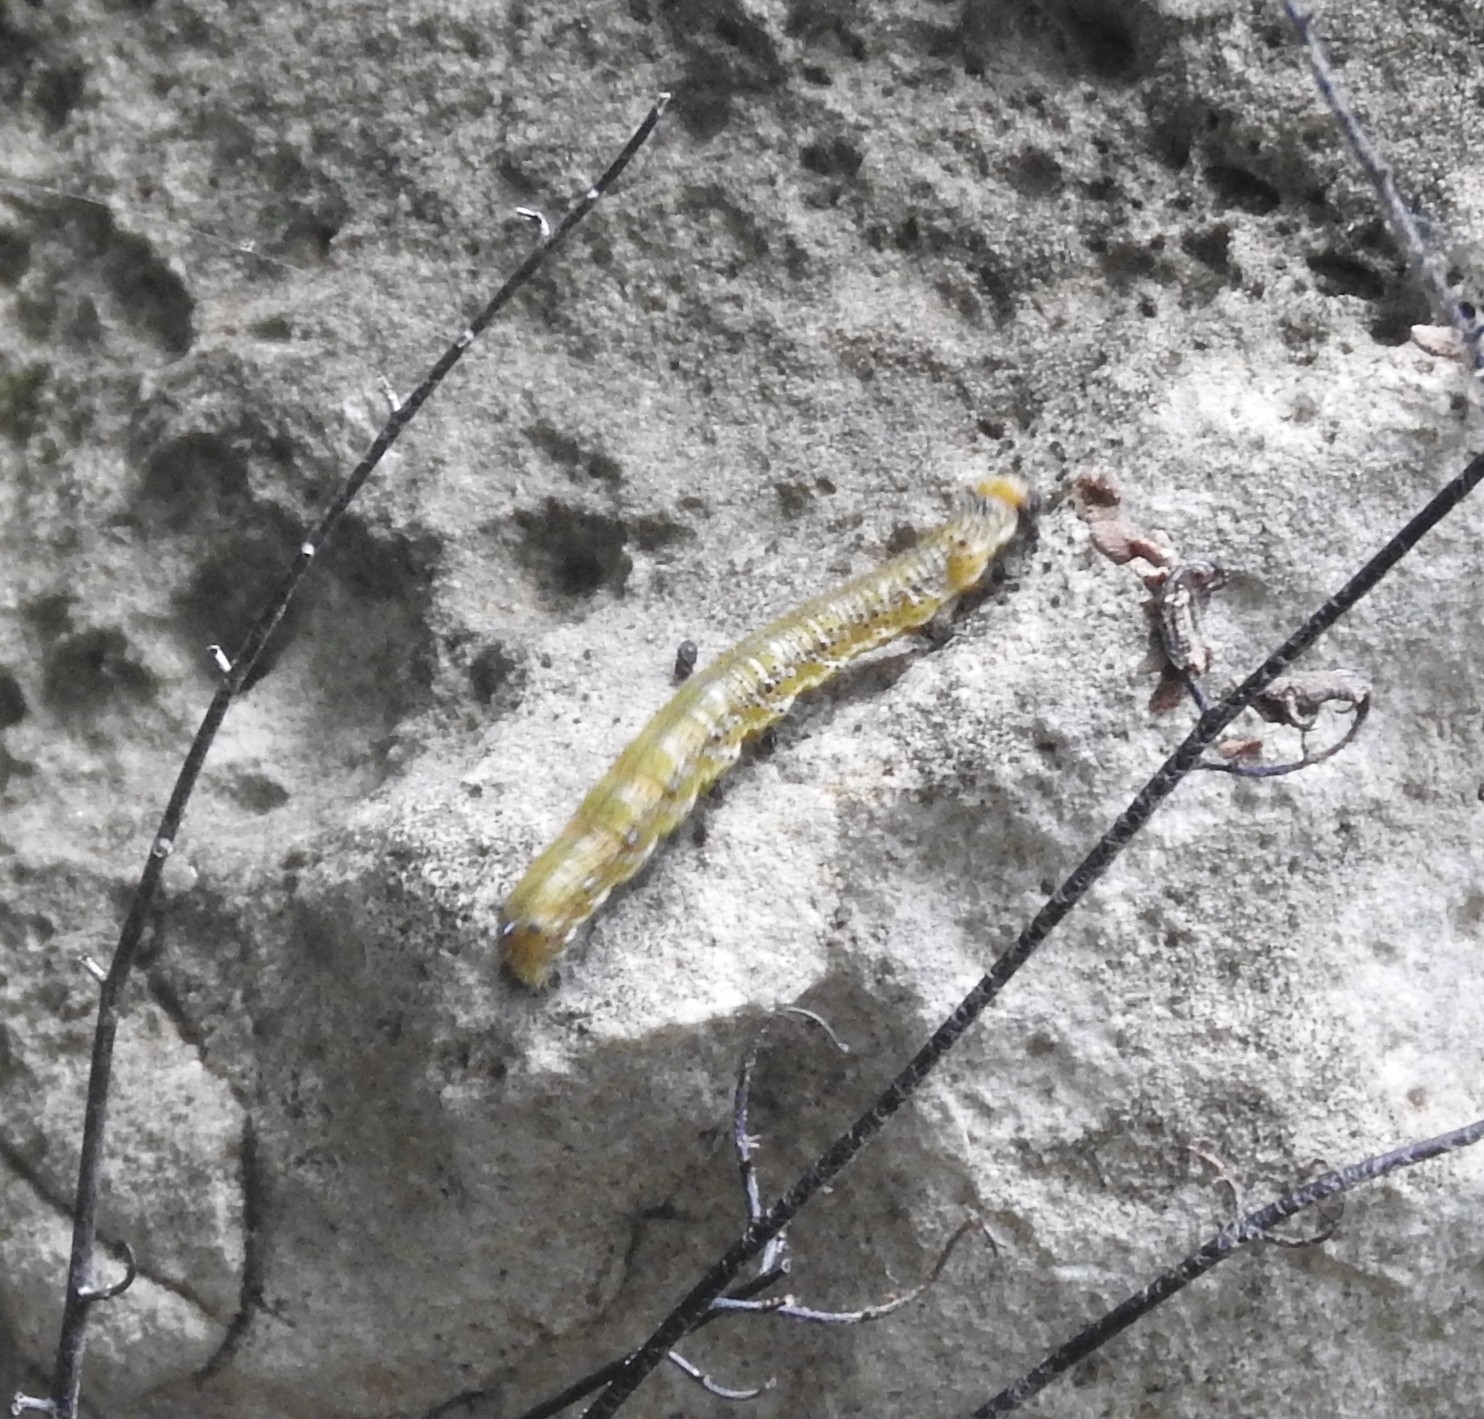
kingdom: Animalia
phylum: Arthropoda
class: Insecta
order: Lepidoptera
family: Nymphalidae
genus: Eunica
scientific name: Eunica monima
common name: Dingy purplewing
